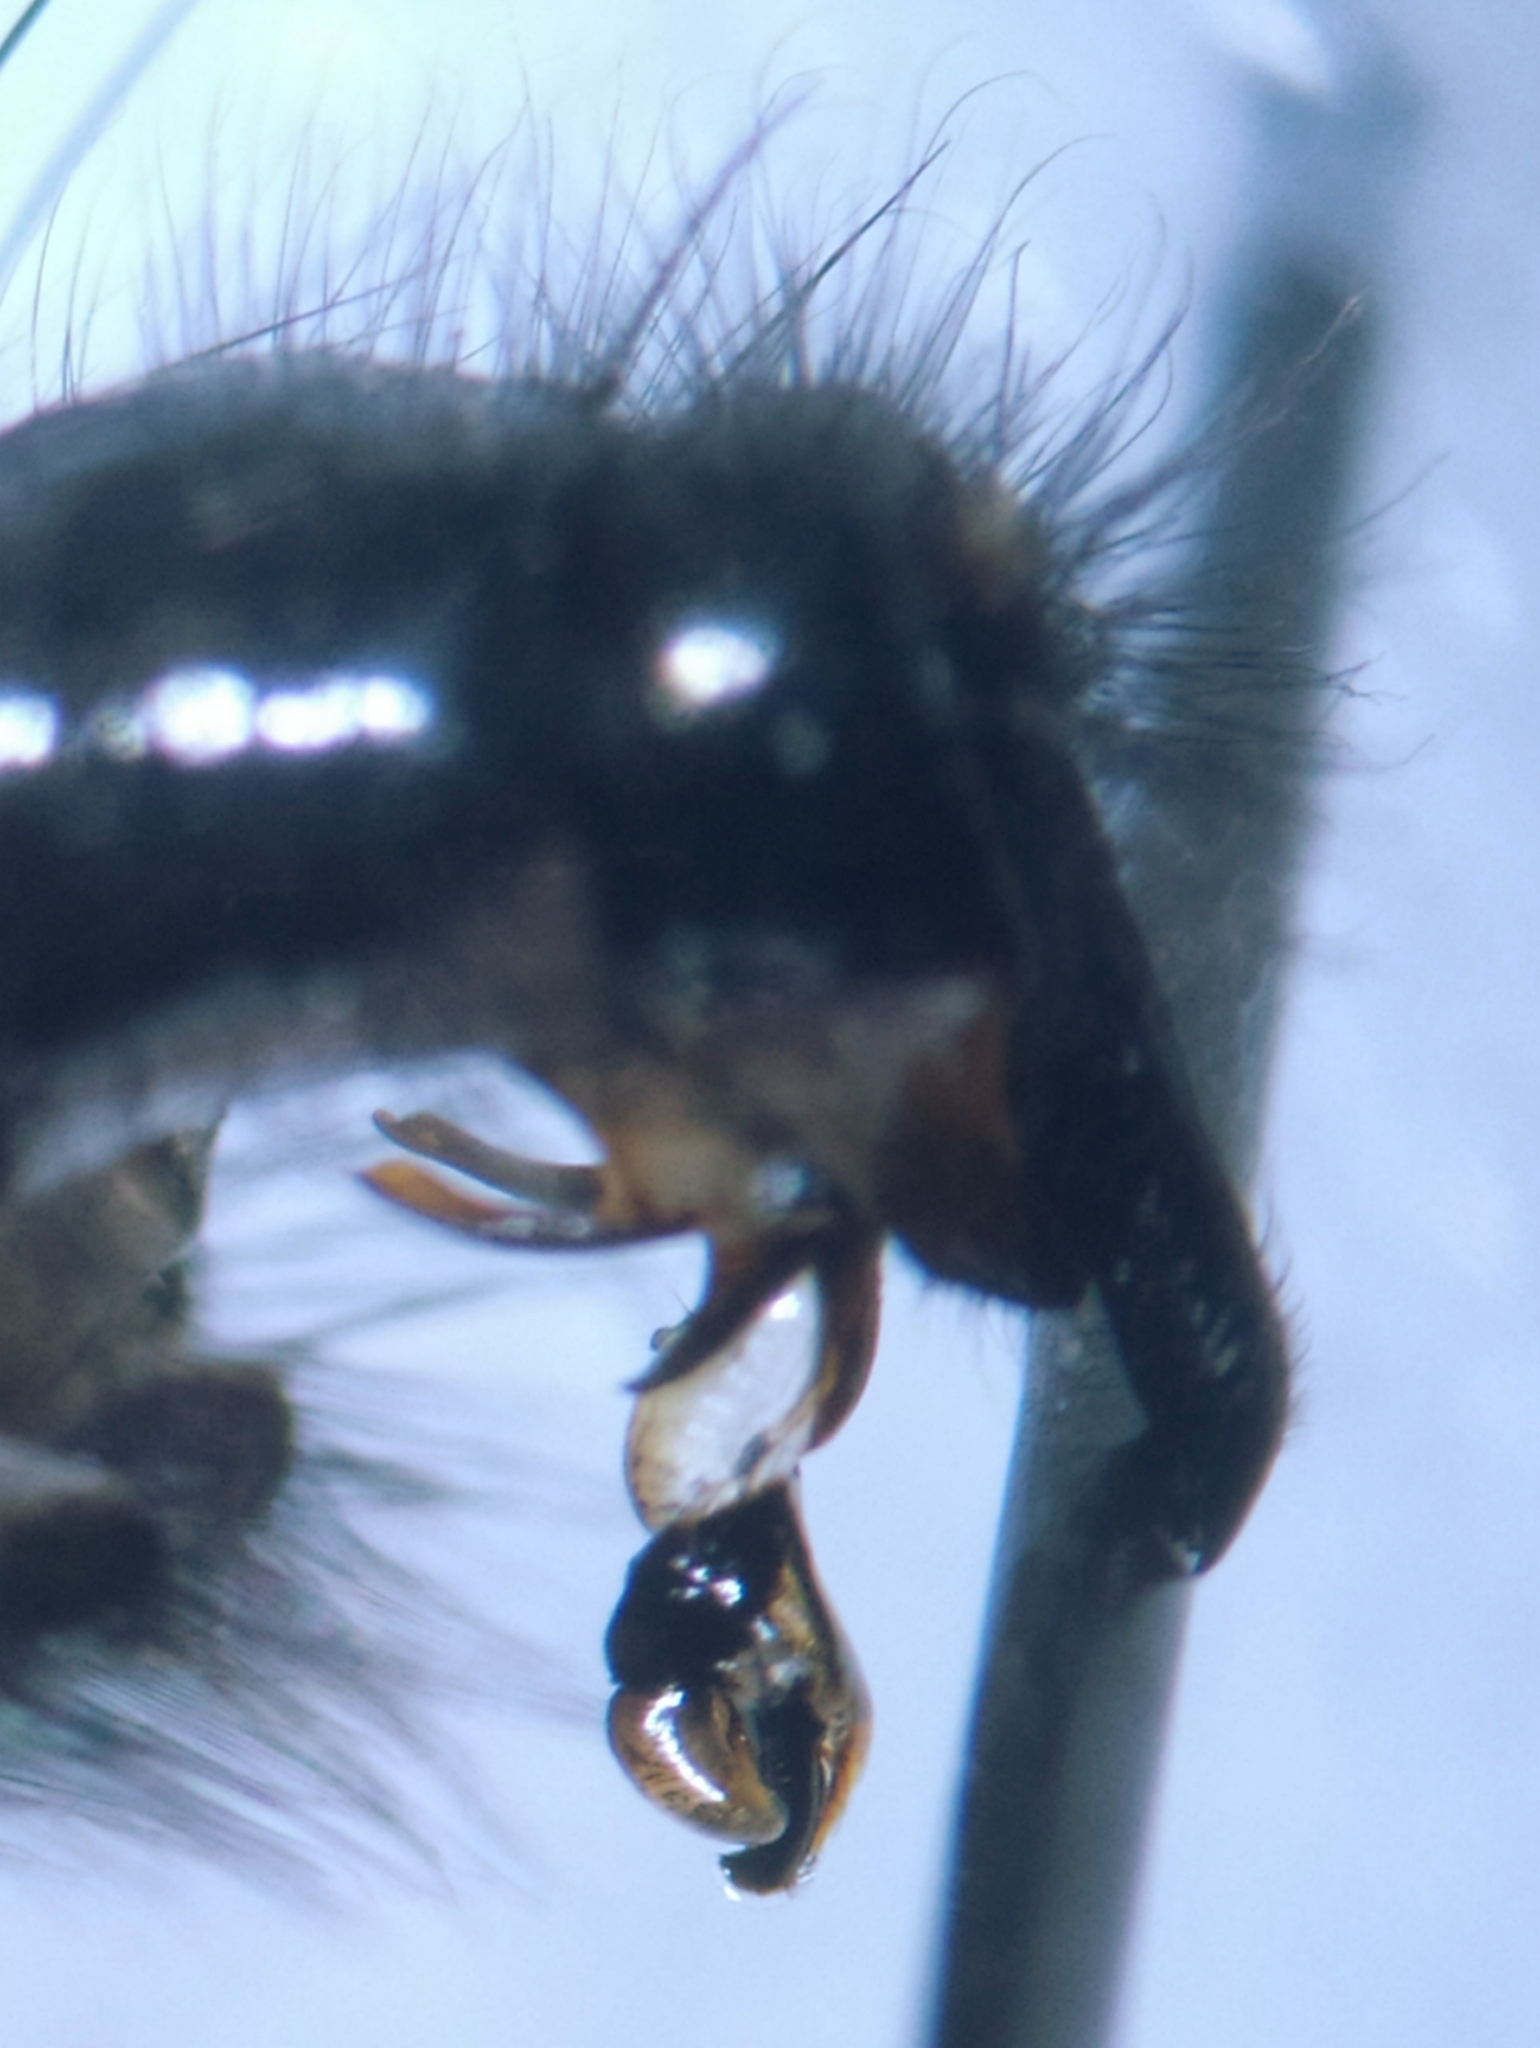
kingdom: Animalia
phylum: Arthropoda
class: Insecta
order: Diptera
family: Sarcophagidae
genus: Sarcophaga
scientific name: Sarcophaga carnaria
